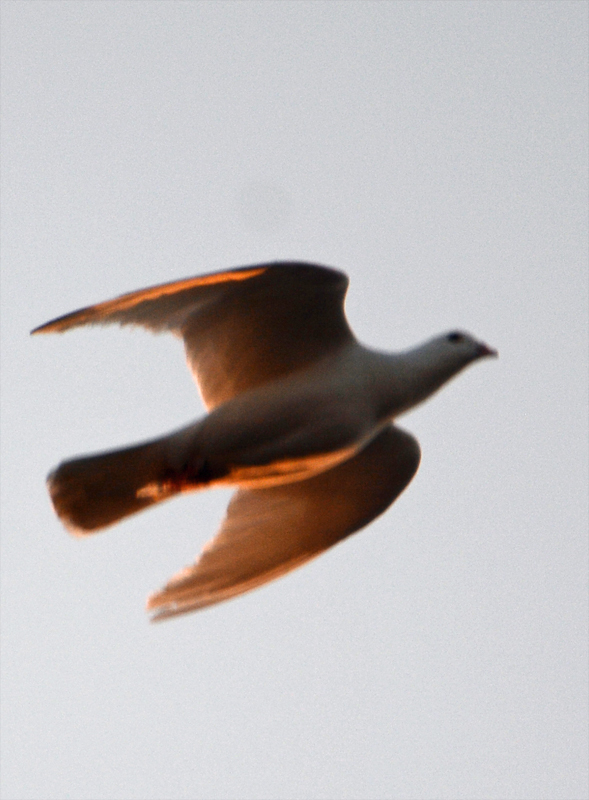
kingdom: Animalia
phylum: Chordata
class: Aves
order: Columbiformes
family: Columbidae
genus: Columba
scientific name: Columba livia
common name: Rock pigeon
